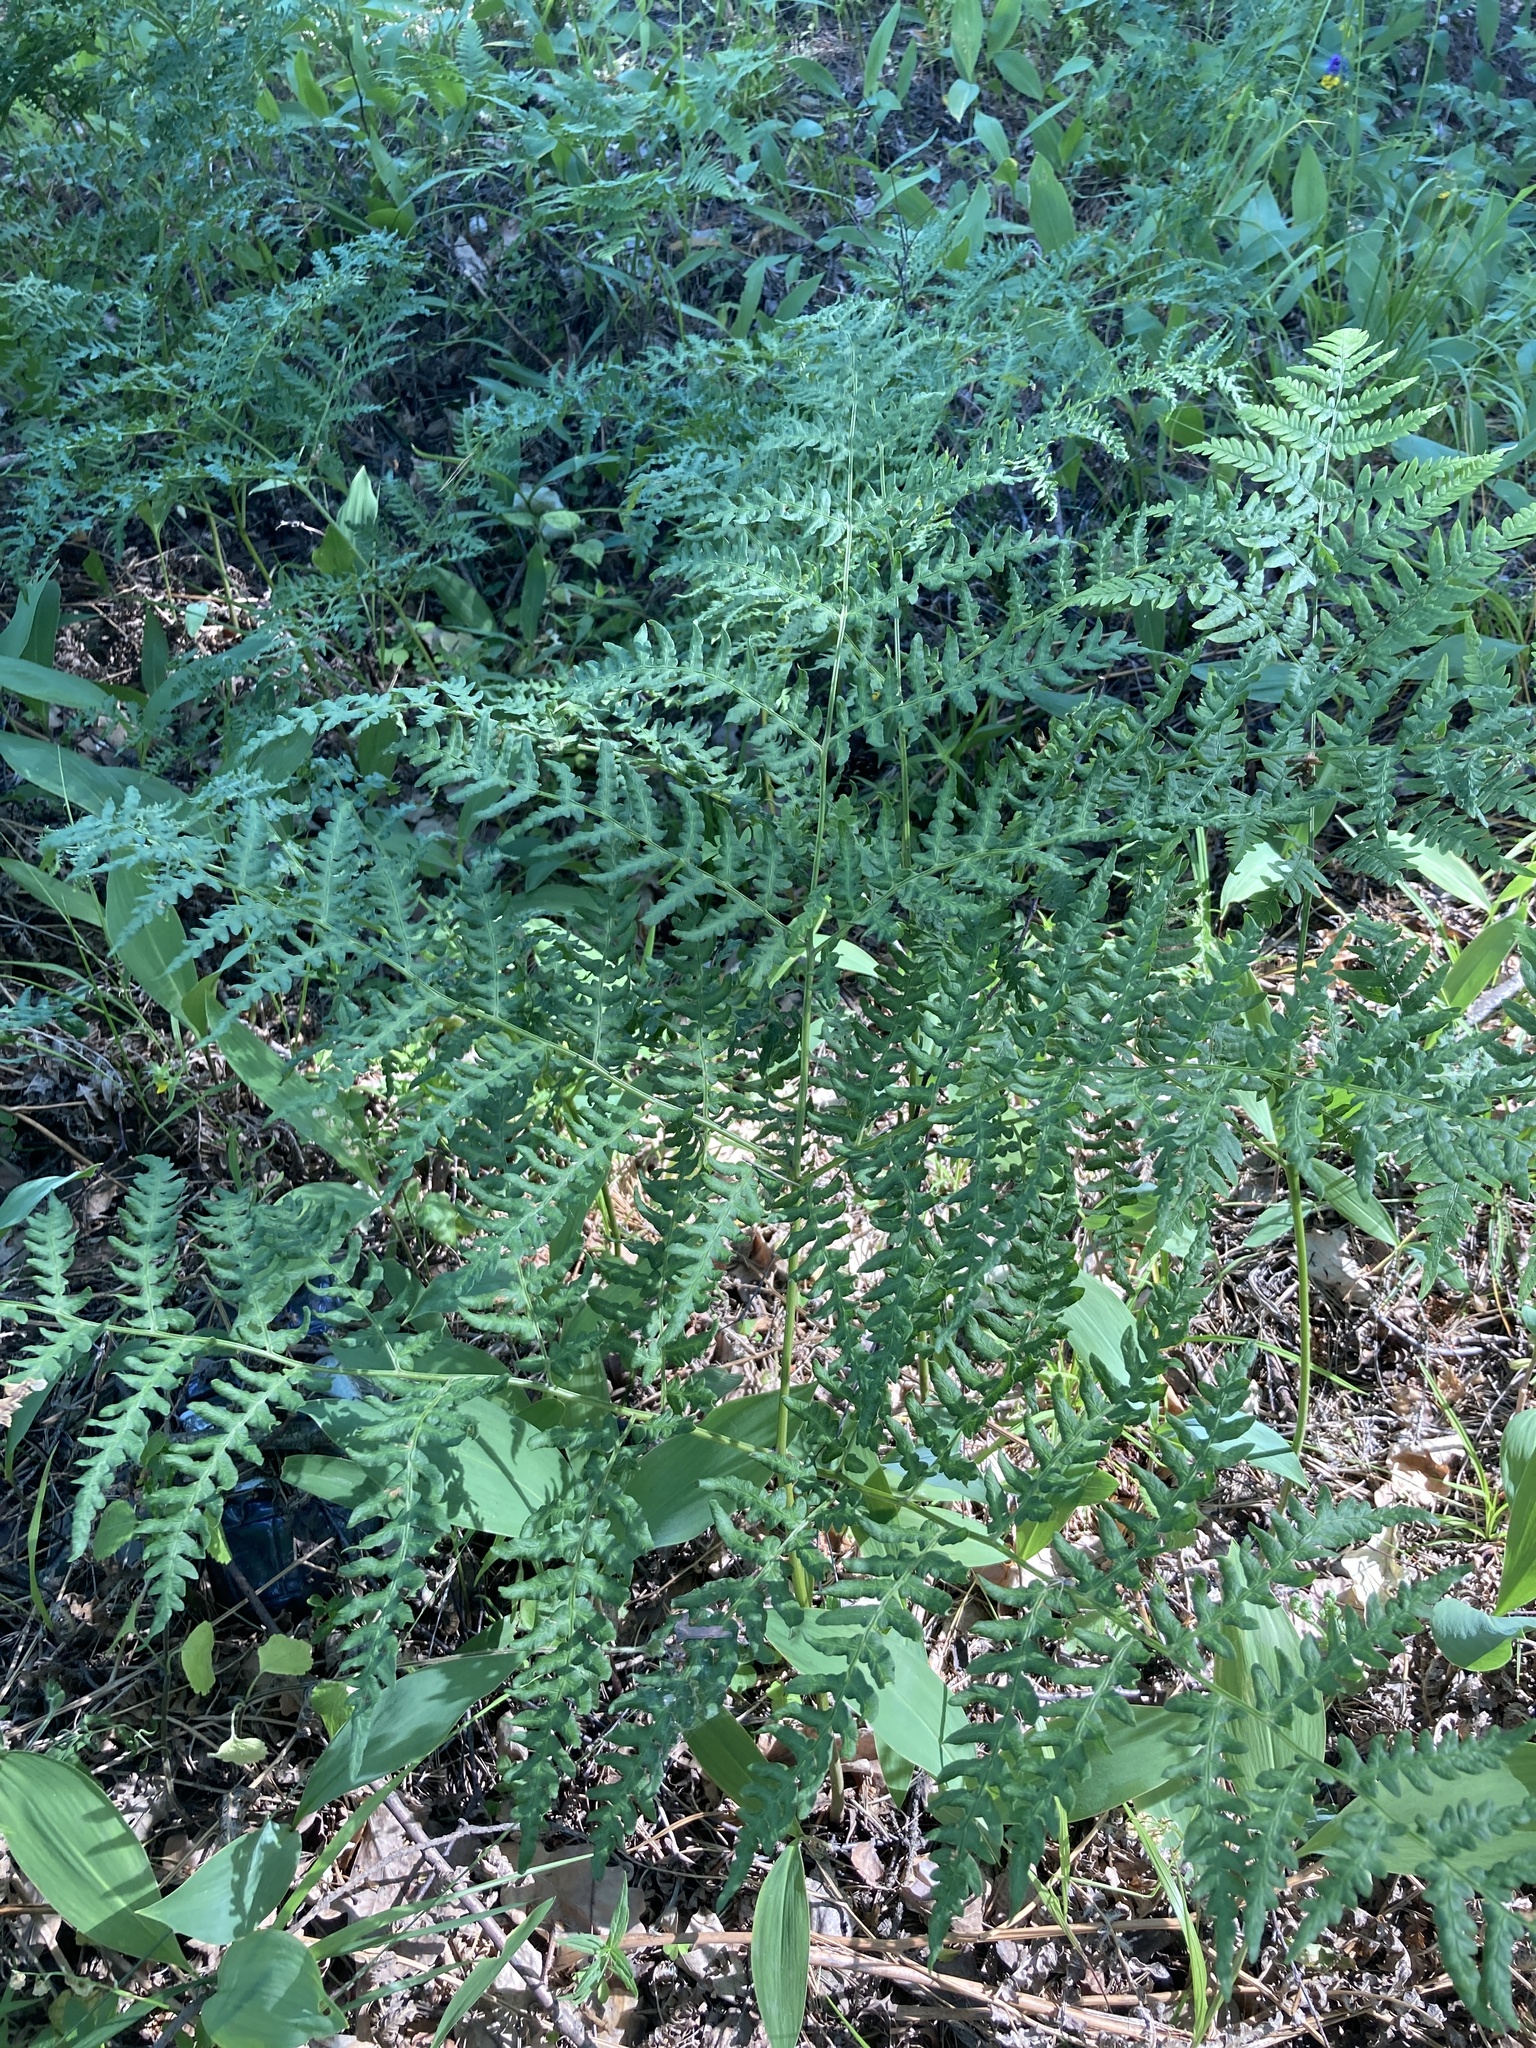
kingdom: Plantae
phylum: Tracheophyta
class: Polypodiopsida
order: Polypodiales
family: Dennstaedtiaceae
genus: Pteridium
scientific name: Pteridium aquilinum
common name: Bracken
